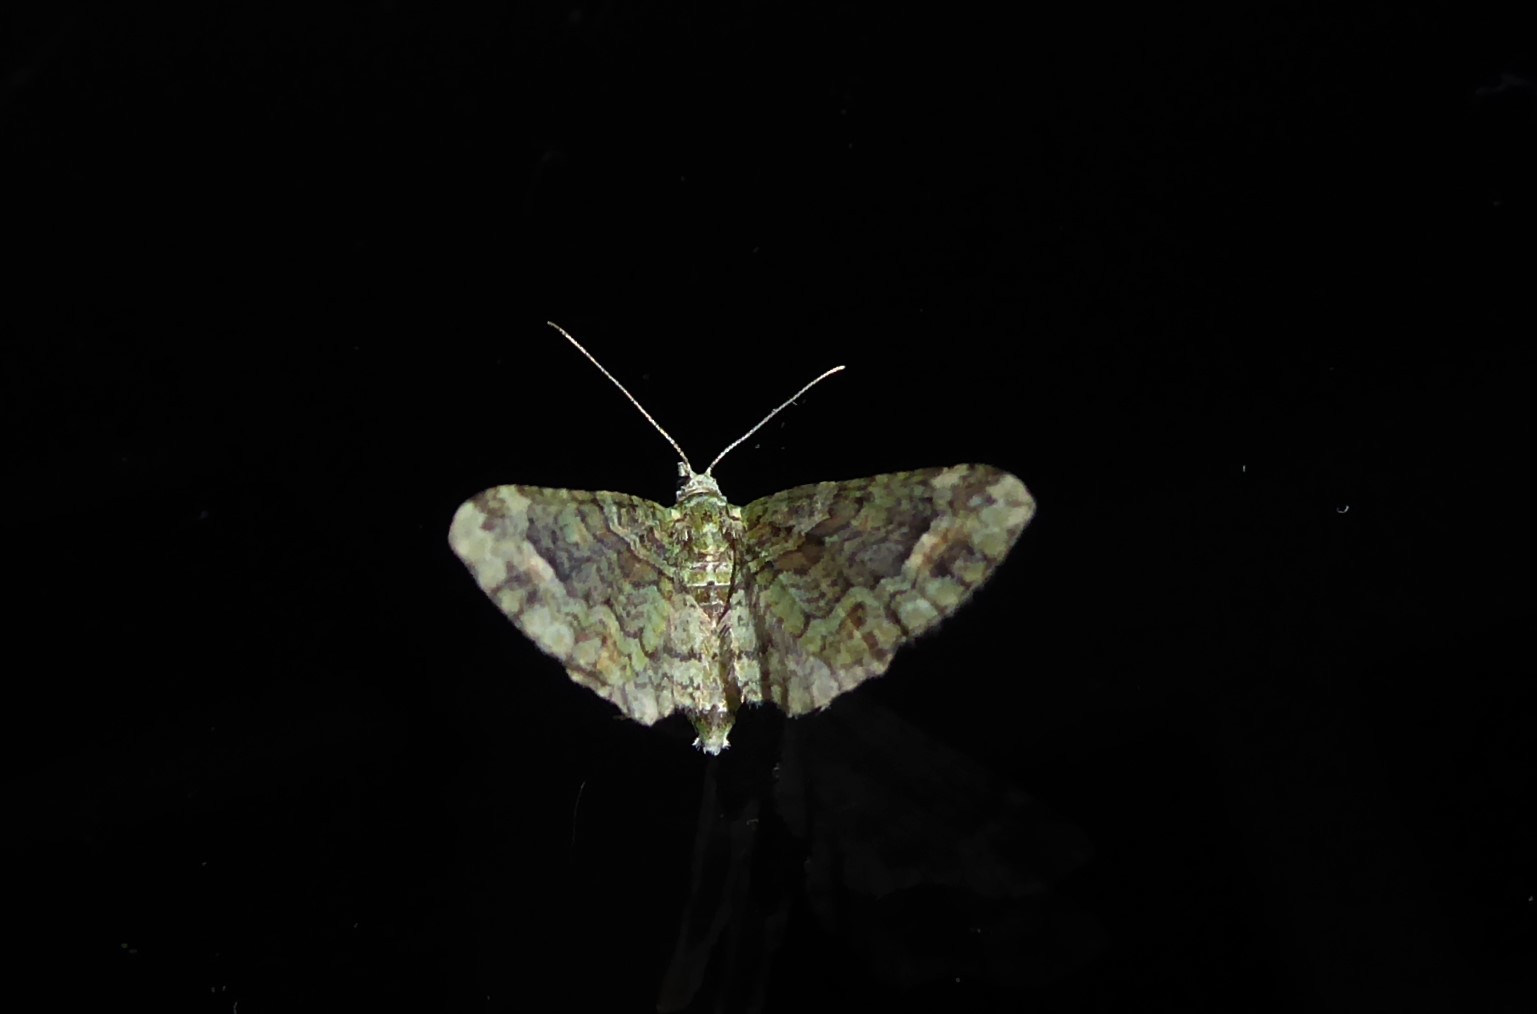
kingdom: Animalia
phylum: Arthropoda
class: Insecta
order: Lepidoptera
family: Geometridae
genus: Idaea
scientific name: Idaea mutanda
